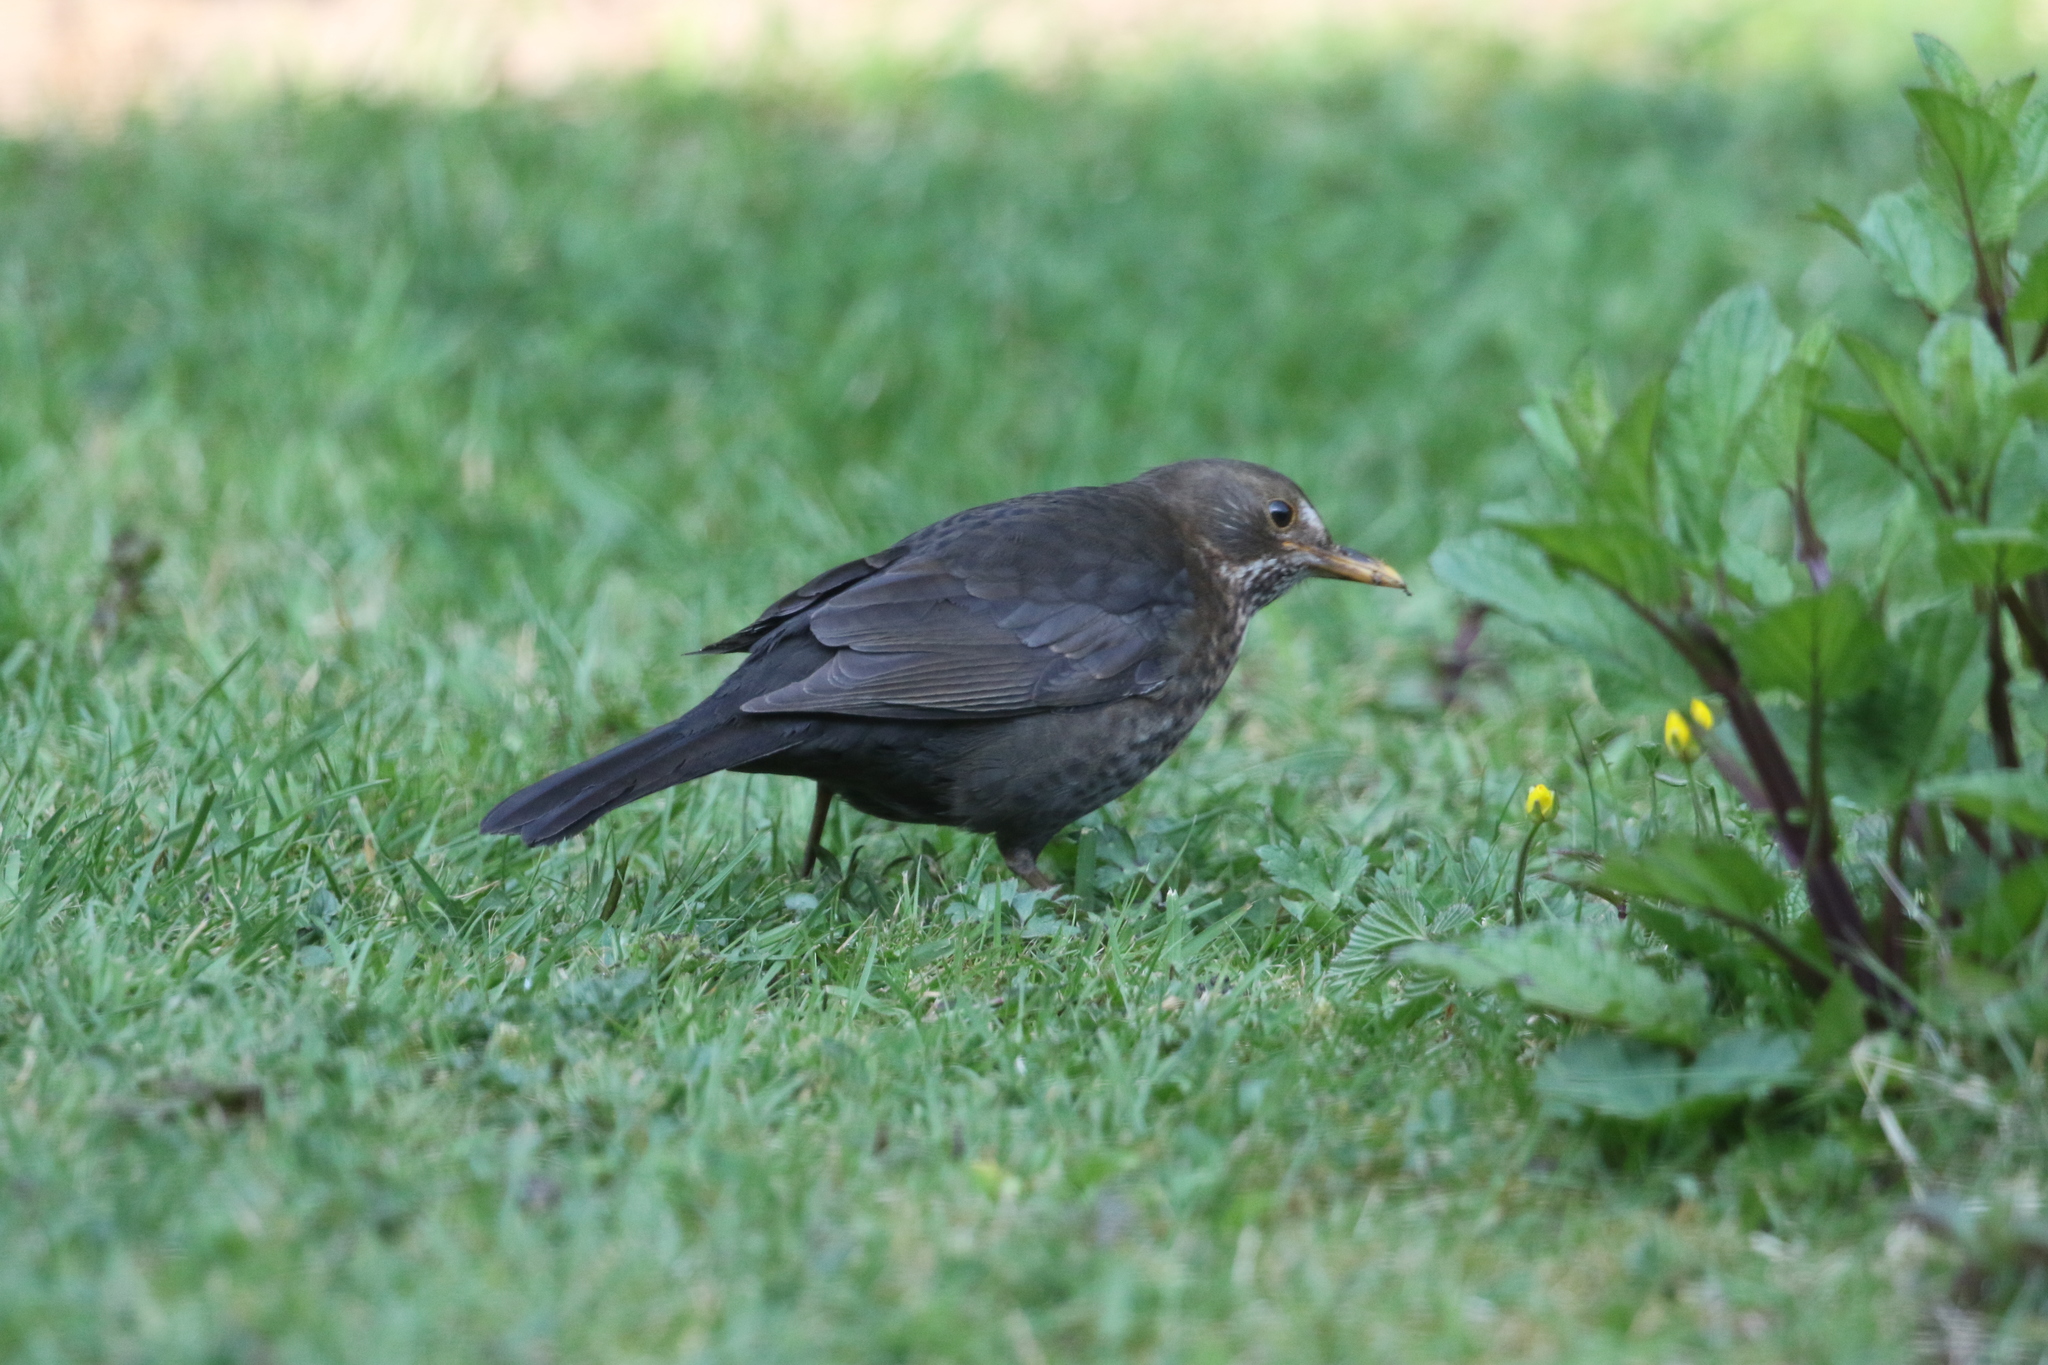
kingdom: Animalia
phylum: Chordata
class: Aves
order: Passeriformes
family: Turdidae
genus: Turdus
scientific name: Turdus merula
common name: Common blackbird
